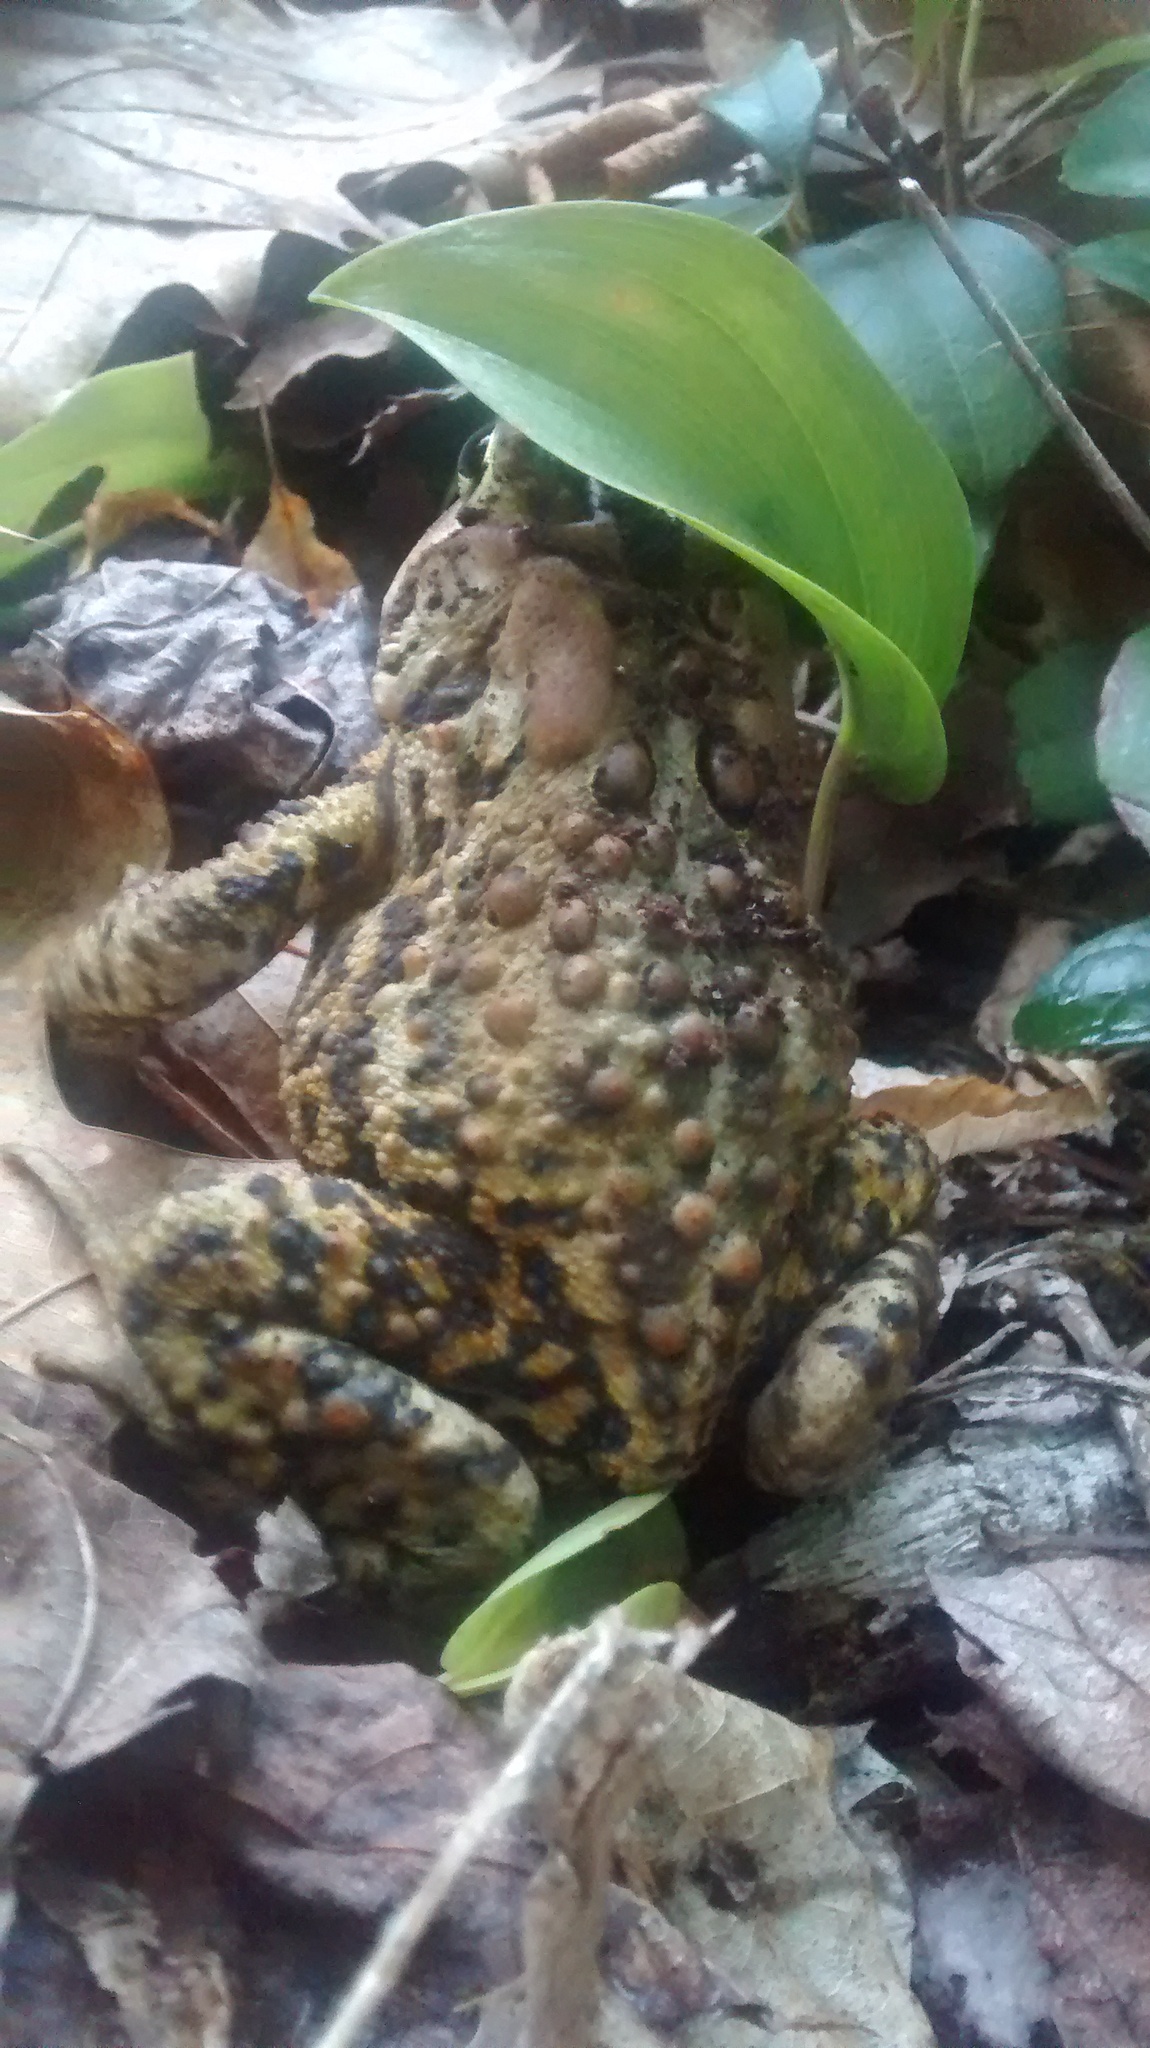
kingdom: Animalia
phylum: Chordata
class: Amphibia
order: Anura
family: Bufonidae
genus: Anaxyrus
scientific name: Anaxyrus americanus
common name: American toad
